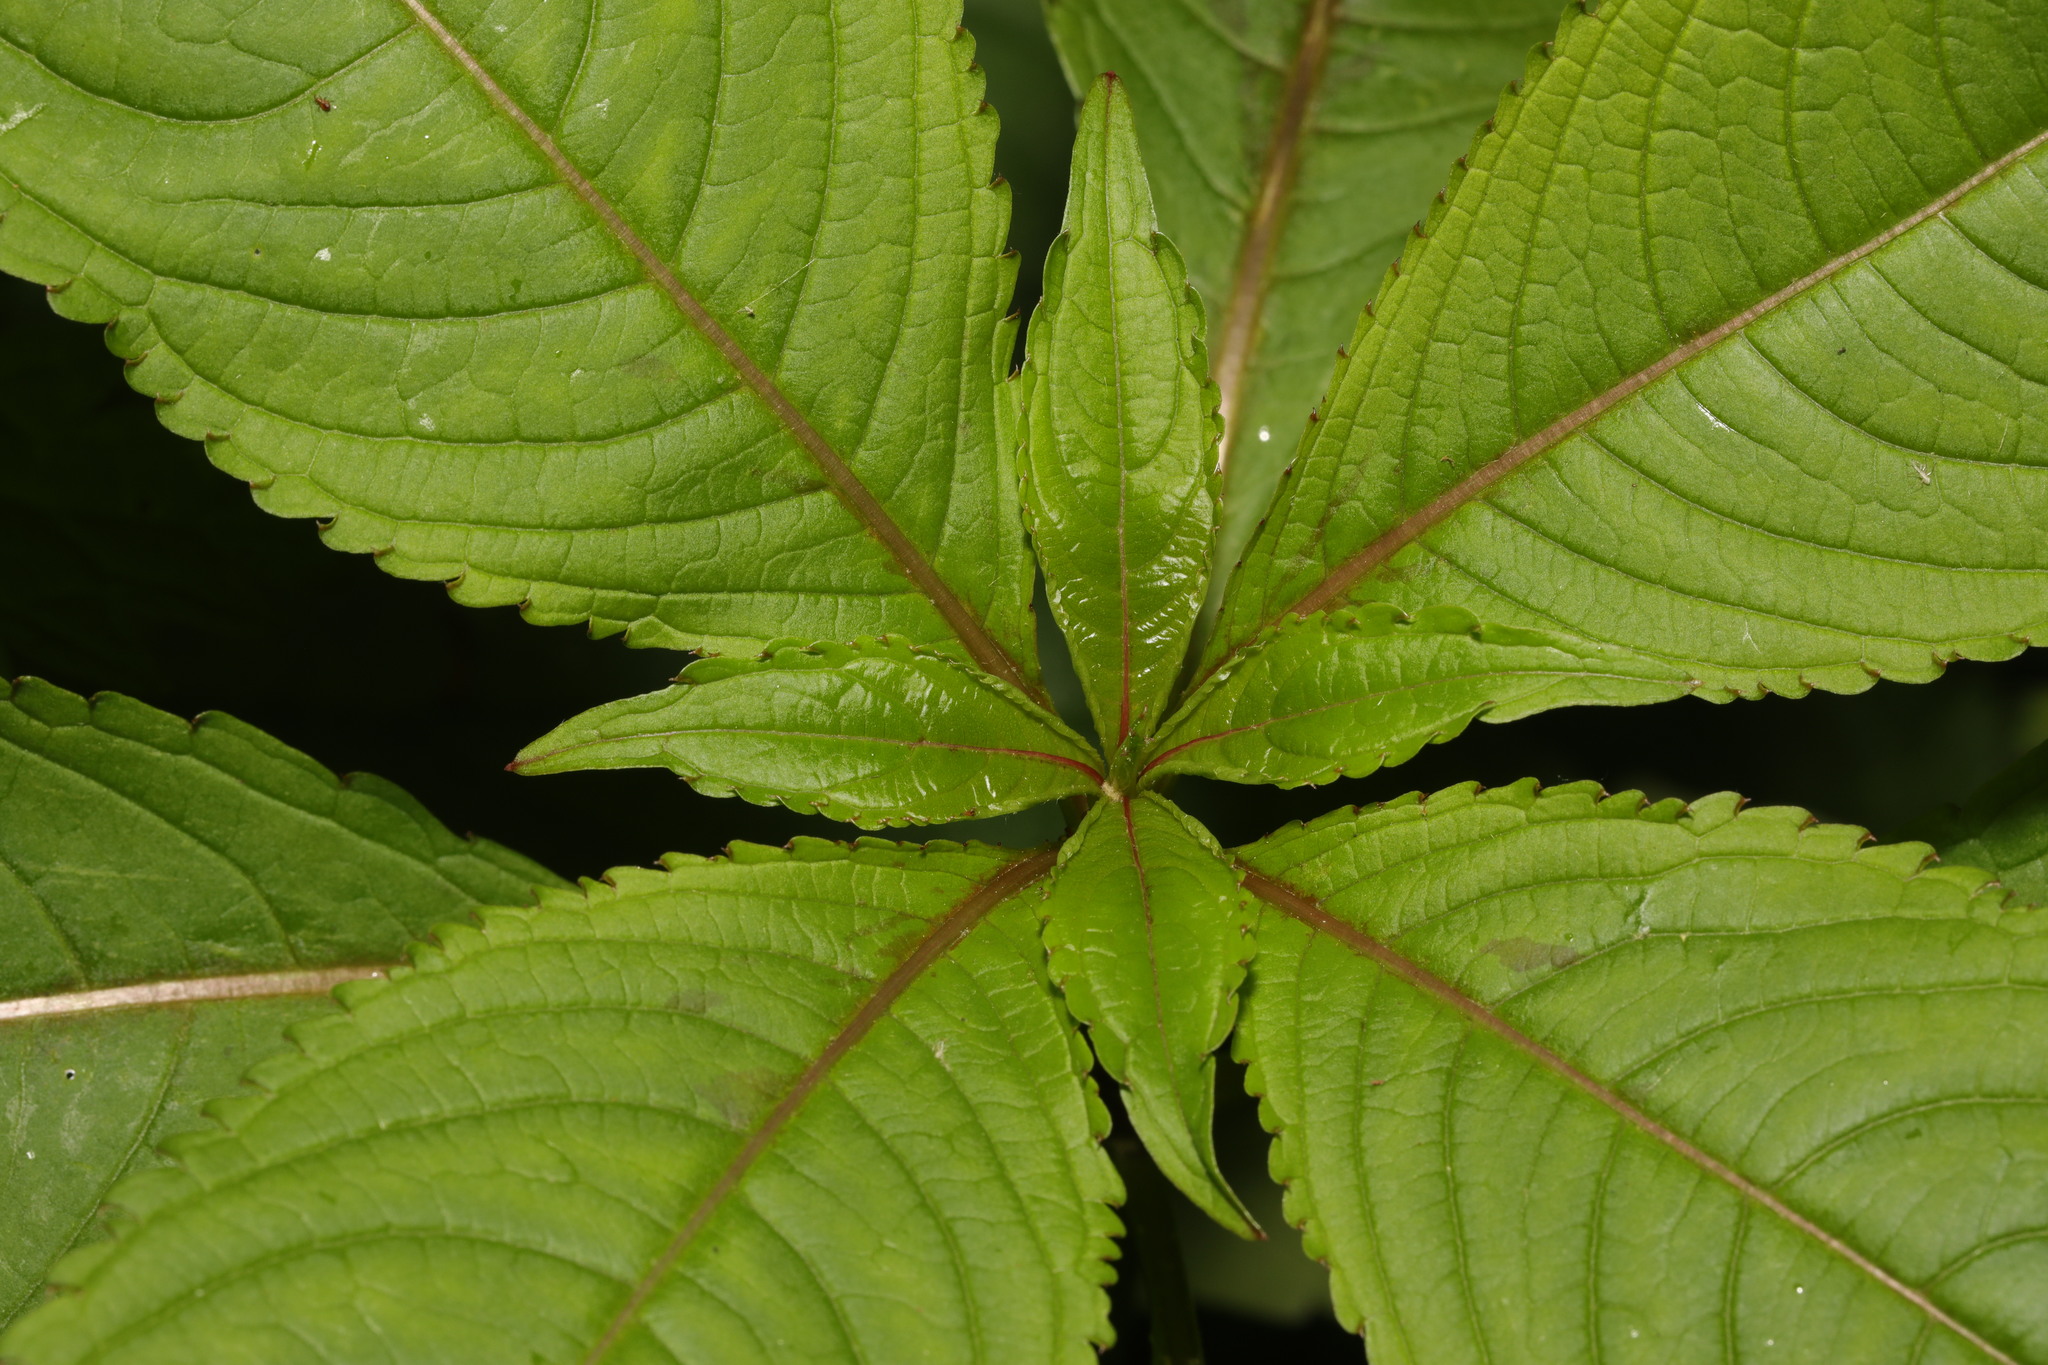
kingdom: Plantae
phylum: Tracheophyta
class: Magnoliopsida
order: Ericales
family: Balsaminaceae
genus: Impatiens
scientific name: Impatiens glandulifera
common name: Himalayan balsam
